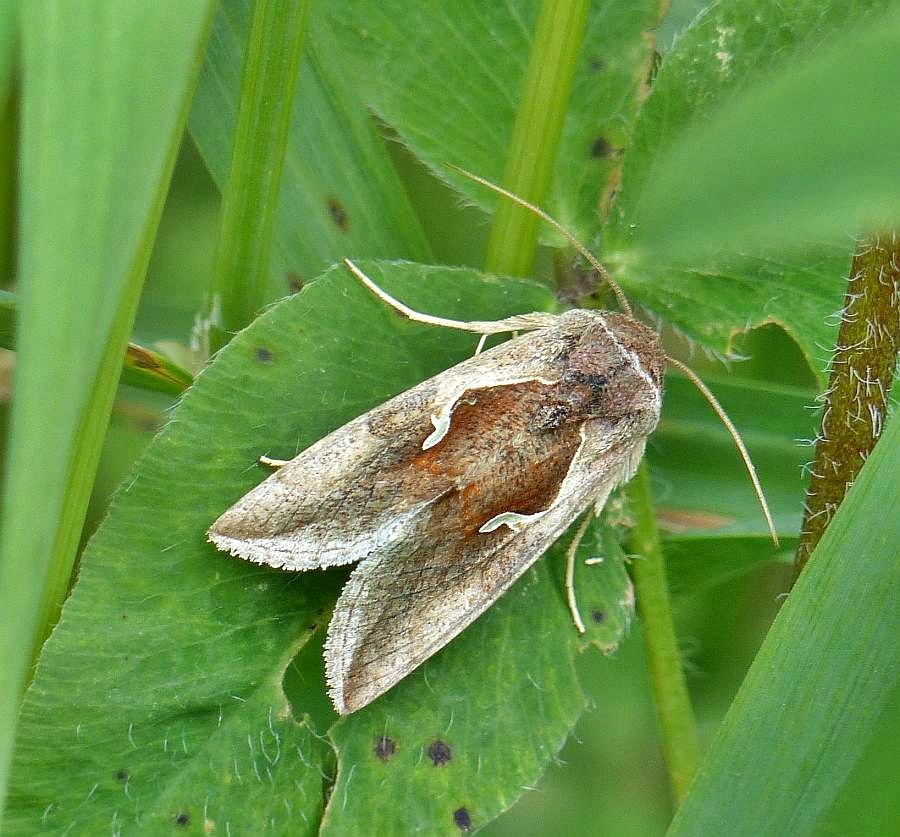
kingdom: Animalia
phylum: Arthropoda
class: Insecta
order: Lepidoptera
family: Noctuidae
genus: Anagrapha
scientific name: Anagrapha falcifera
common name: Celery looper
